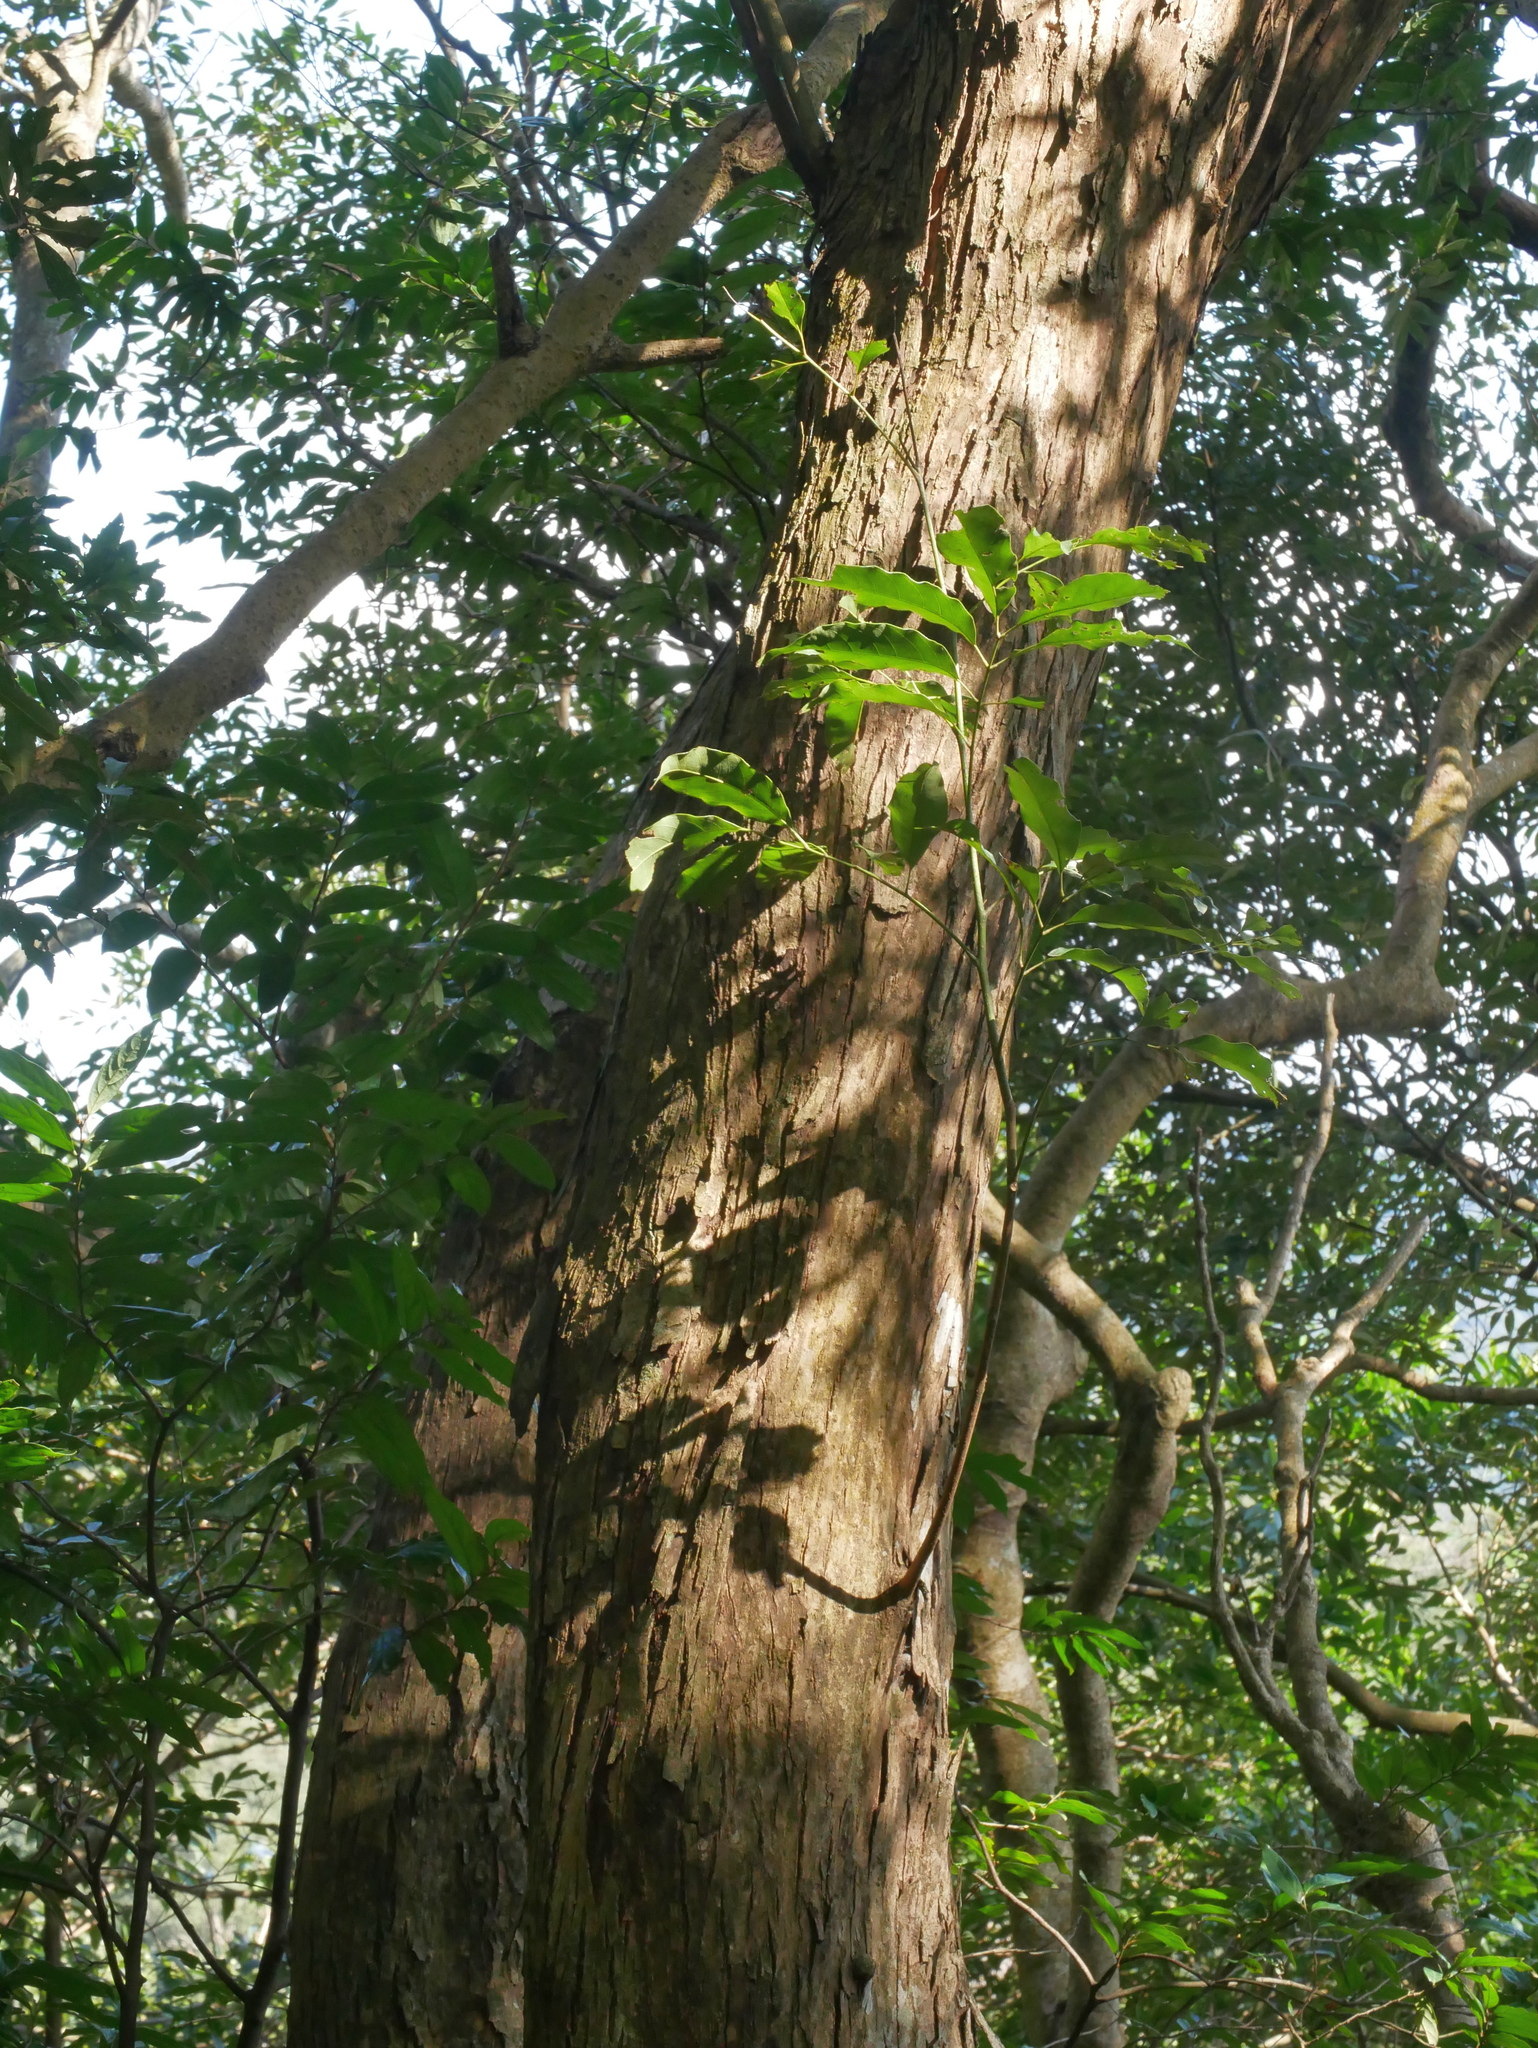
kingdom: Plantae
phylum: Tracheophyta
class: Magnoliopsida
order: Fagales
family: Juglandaceae
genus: Engelhardia
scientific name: Engelhardia roxburghiana
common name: Golden malay beam
